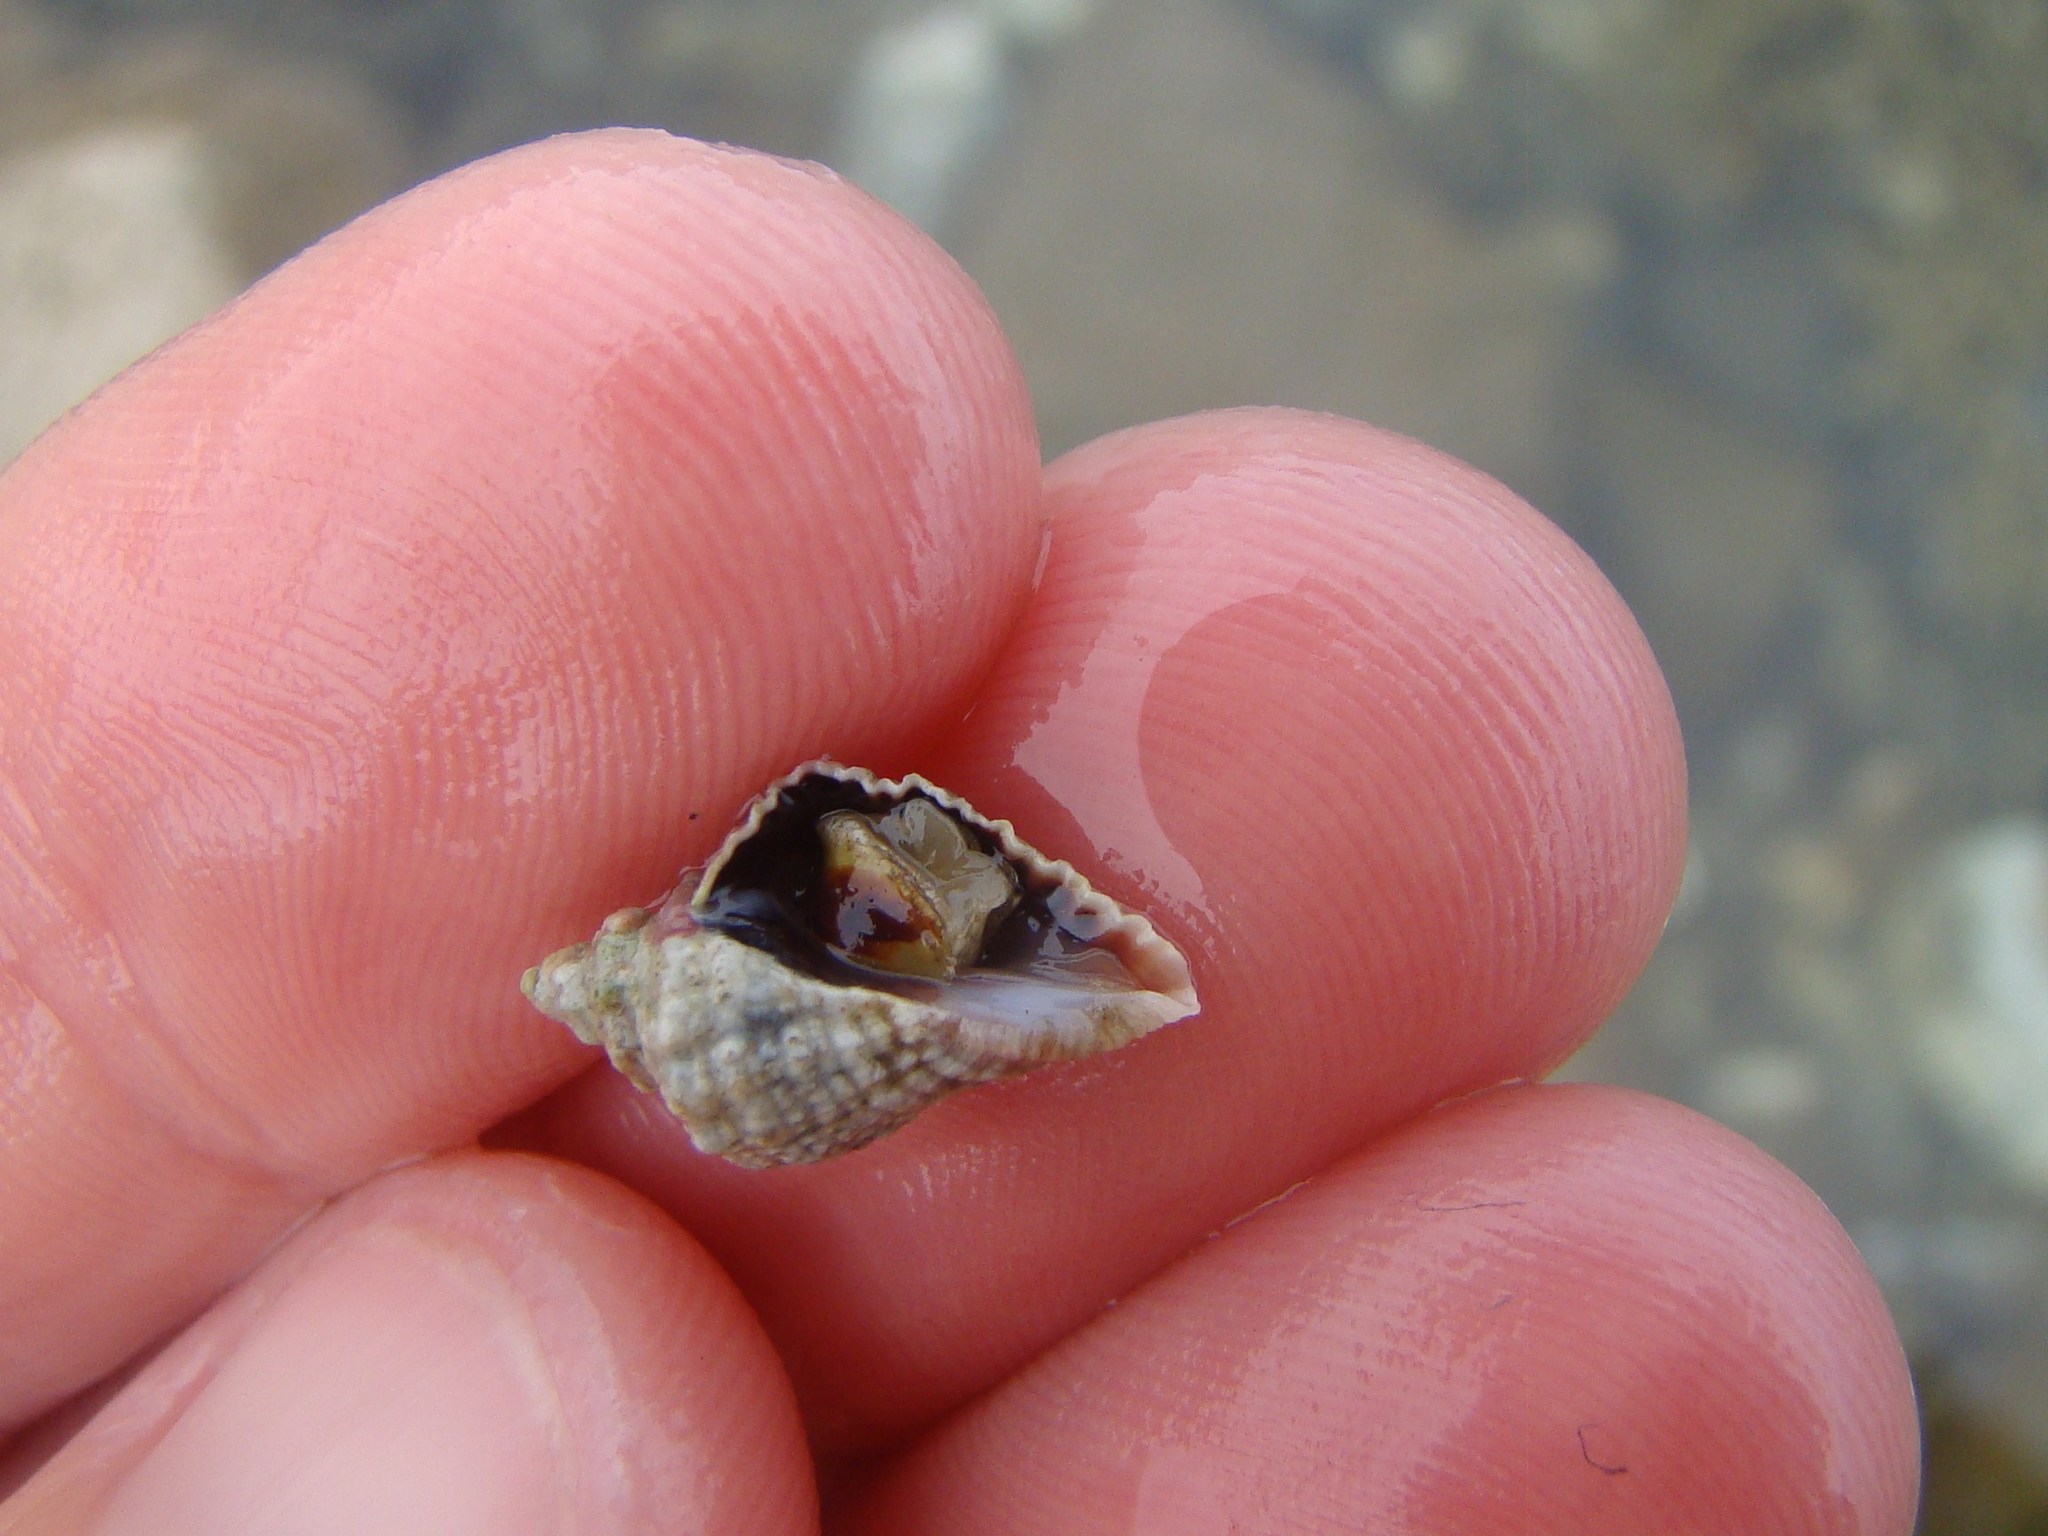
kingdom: Animalia
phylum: Mollusca
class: Gastropoda
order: Neogastropoda
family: Muricidae
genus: Haustrum
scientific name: Haustrum haustorium
